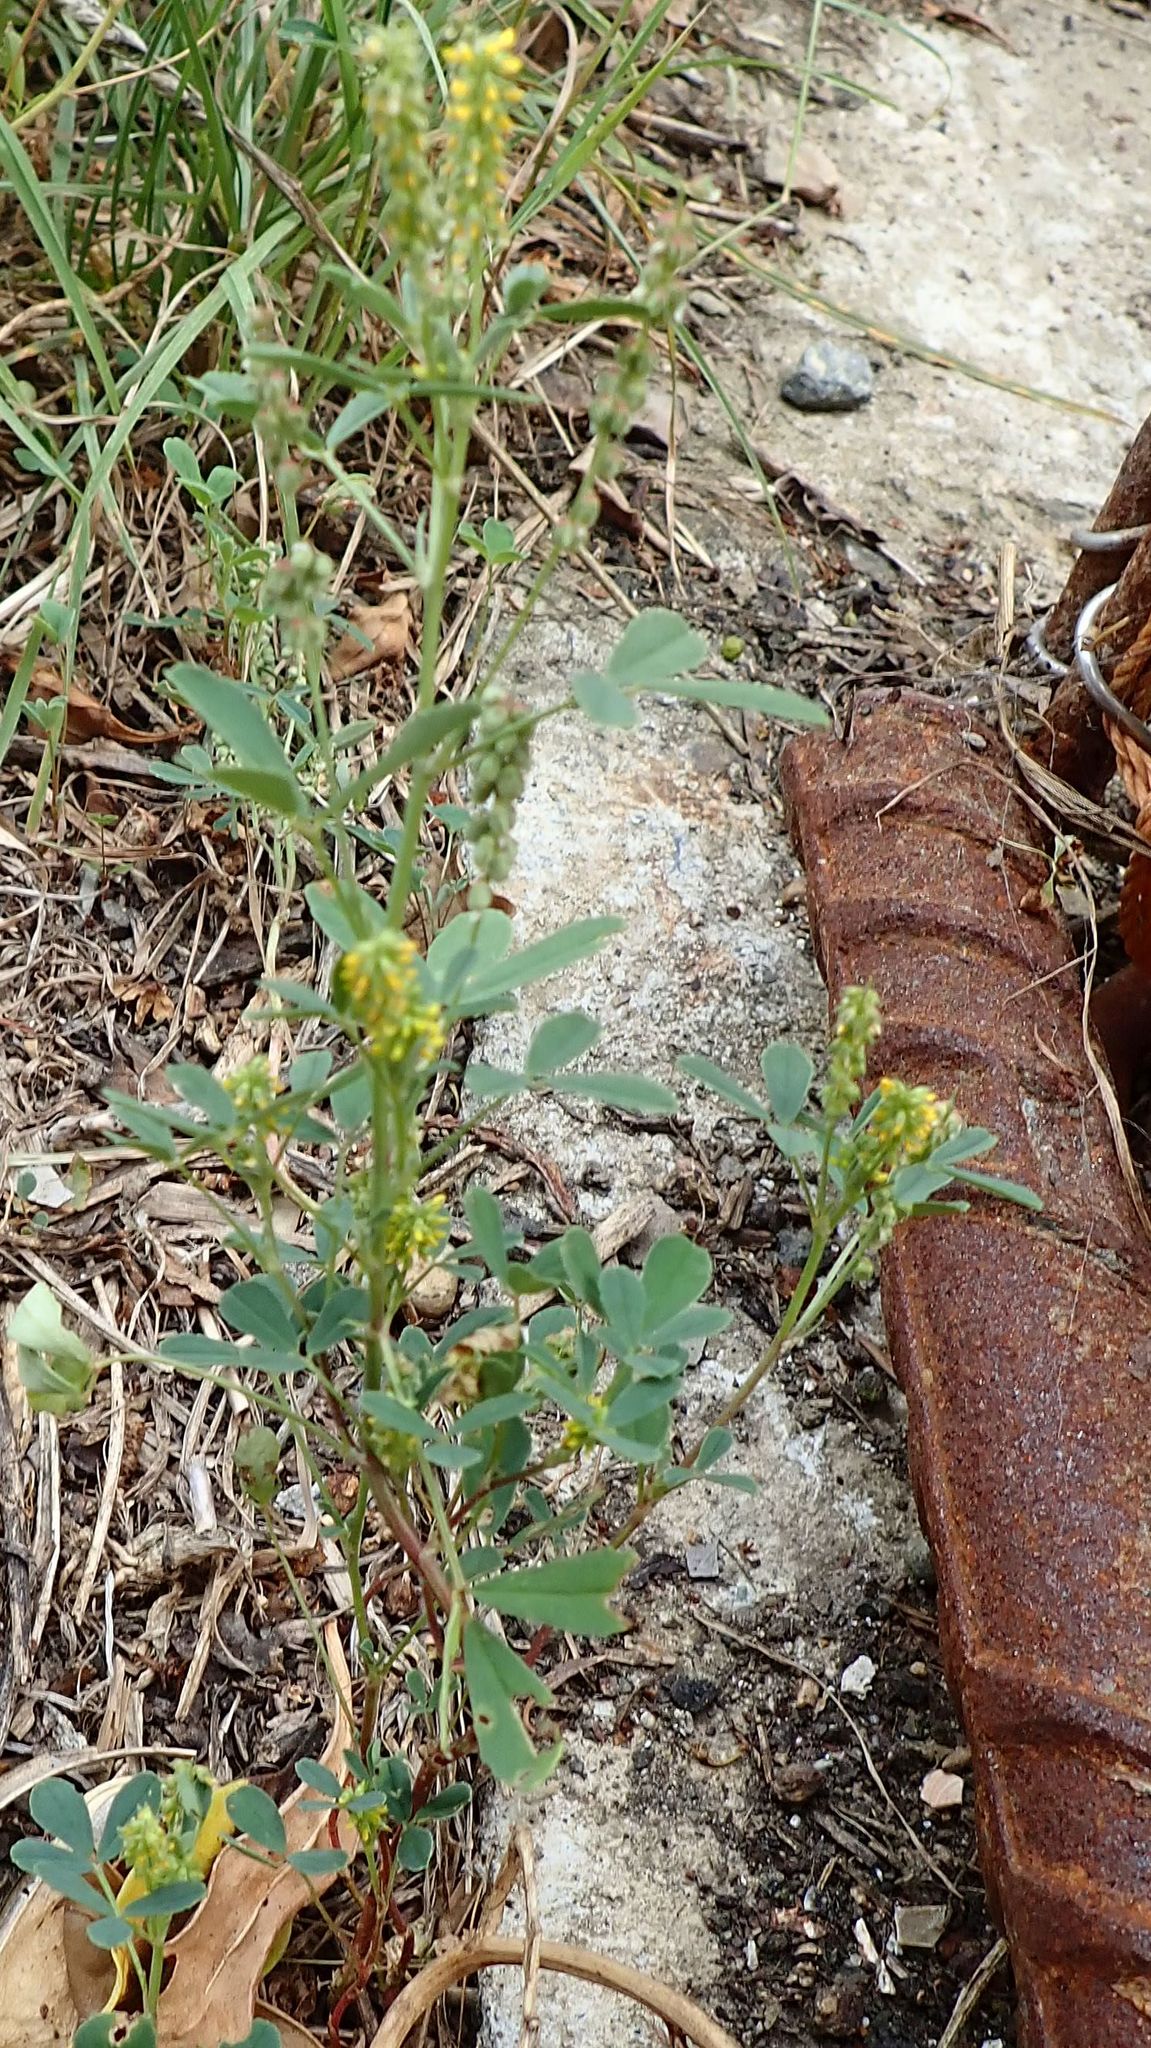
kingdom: Plantae
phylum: Tracheophyta
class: Magnoliopsida
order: Fabales
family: Fabaceae
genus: Melilotus
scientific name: Melilotus indicus
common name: Small melilot
